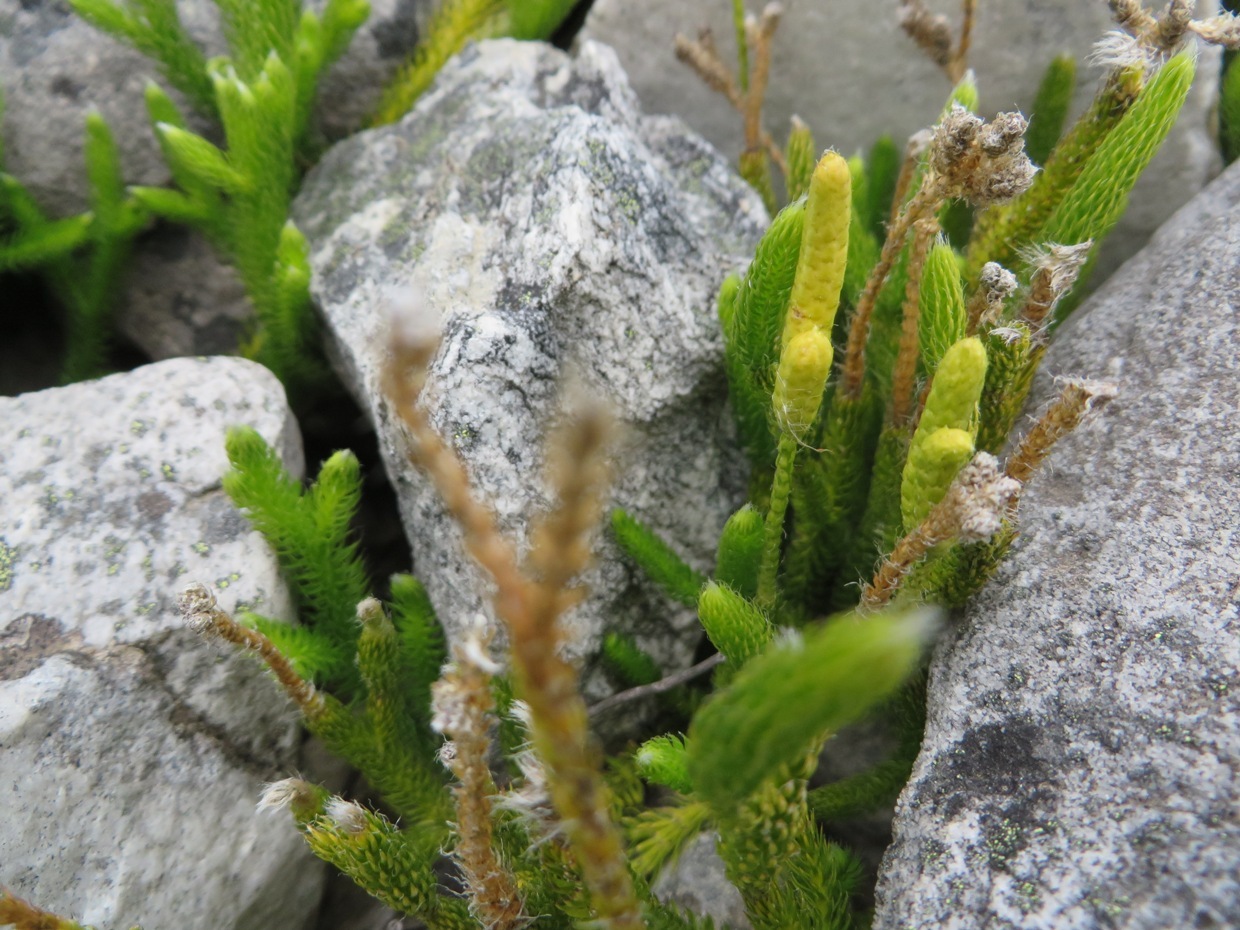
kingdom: Plantae
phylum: Tracheophyta
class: Lycopodiopsida
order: Lycopodiales
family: Lycopodiaceae
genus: Lycopodium
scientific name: Lycopodium clavatum
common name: Stag's-horn clubmoss
